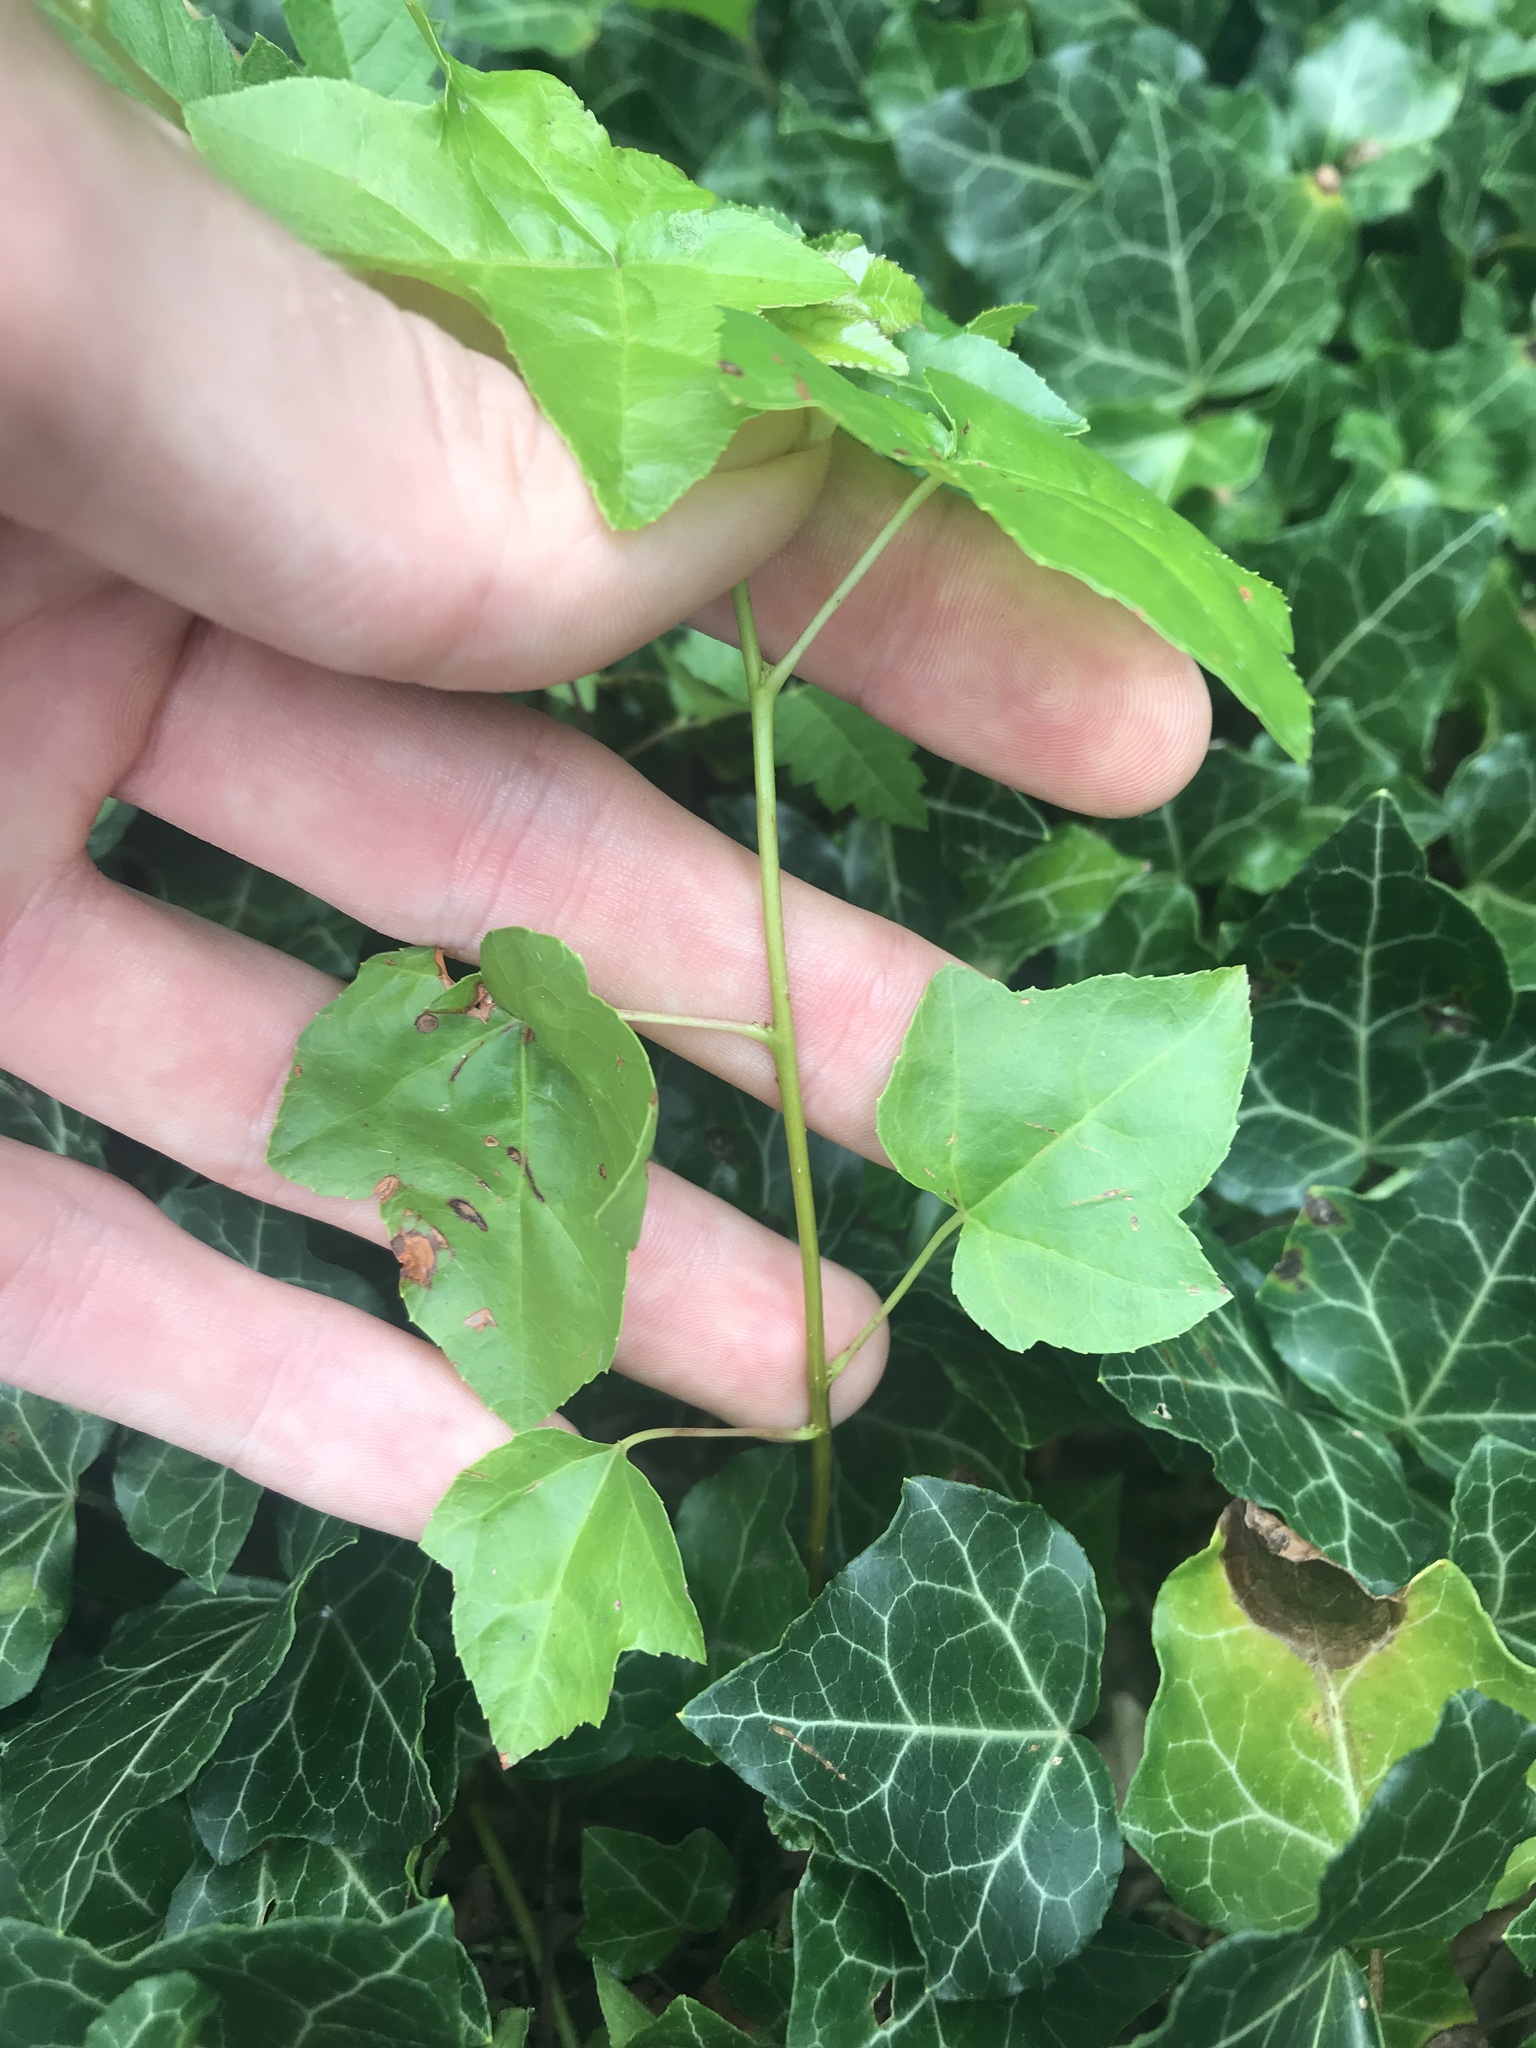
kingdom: Plantae
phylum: Tracheophyta
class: Magnoliopsida
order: Saxifragales
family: Altingiaceae
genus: Liquidambar
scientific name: Liquidambar styraciflua
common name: Sweet gum
